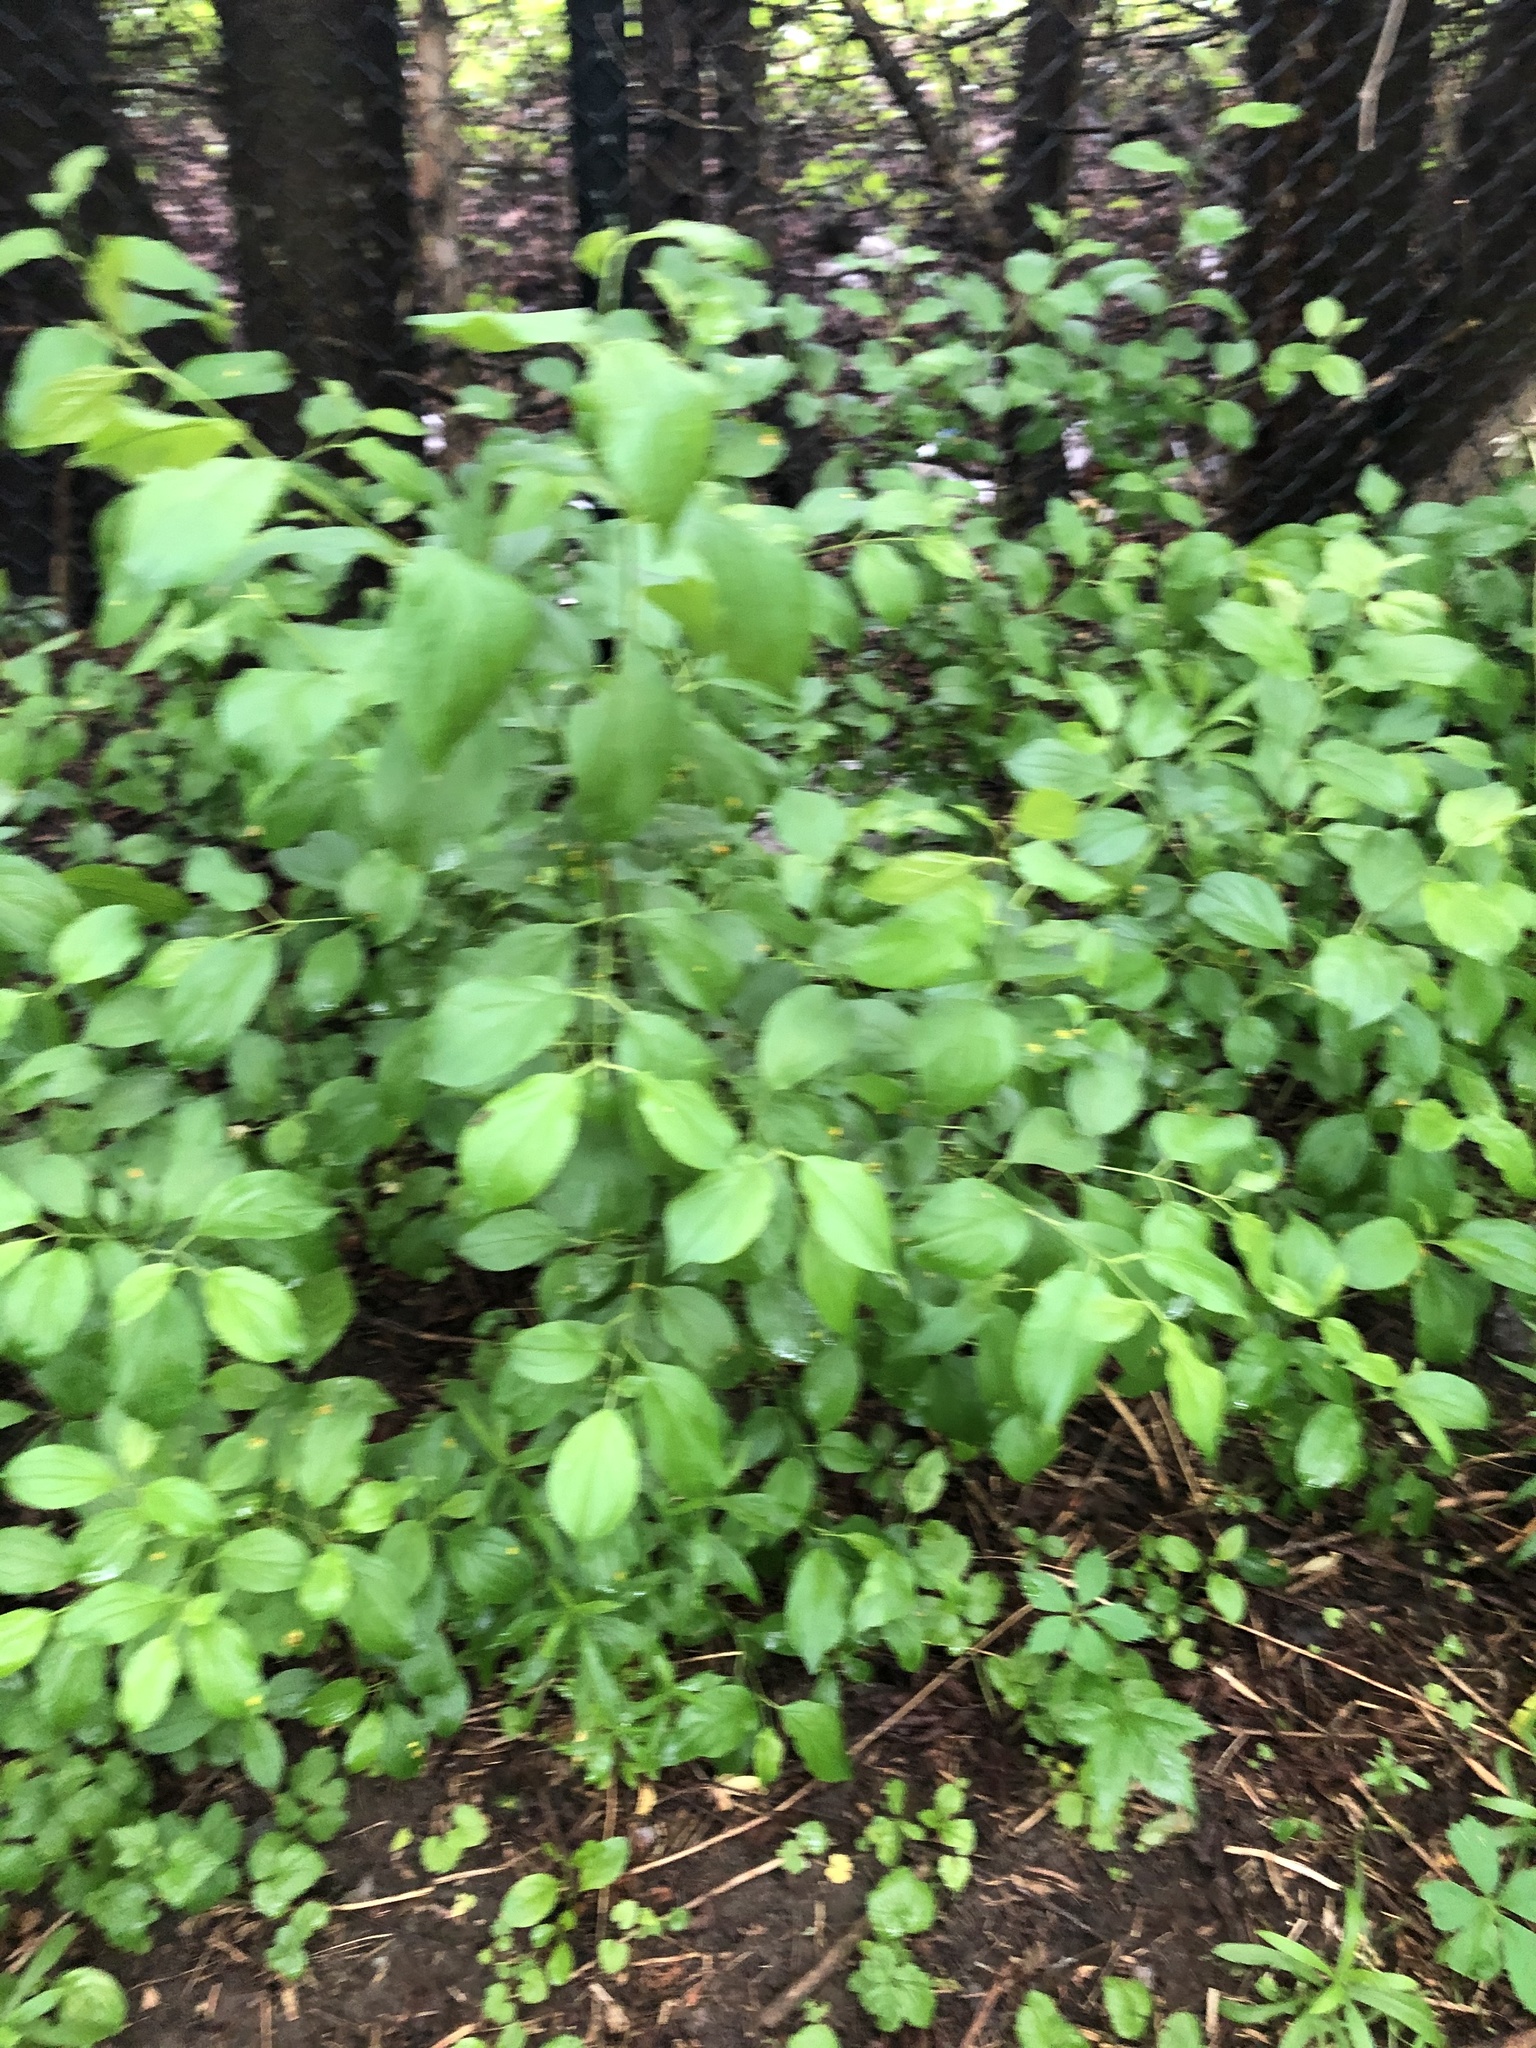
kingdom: Plantae
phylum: Tracheophyta
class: Magnoliopsida
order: Rosales
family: Rhamnaceae
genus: Rhamnus
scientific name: Rhamnus cathartica
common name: Common buckthorn
